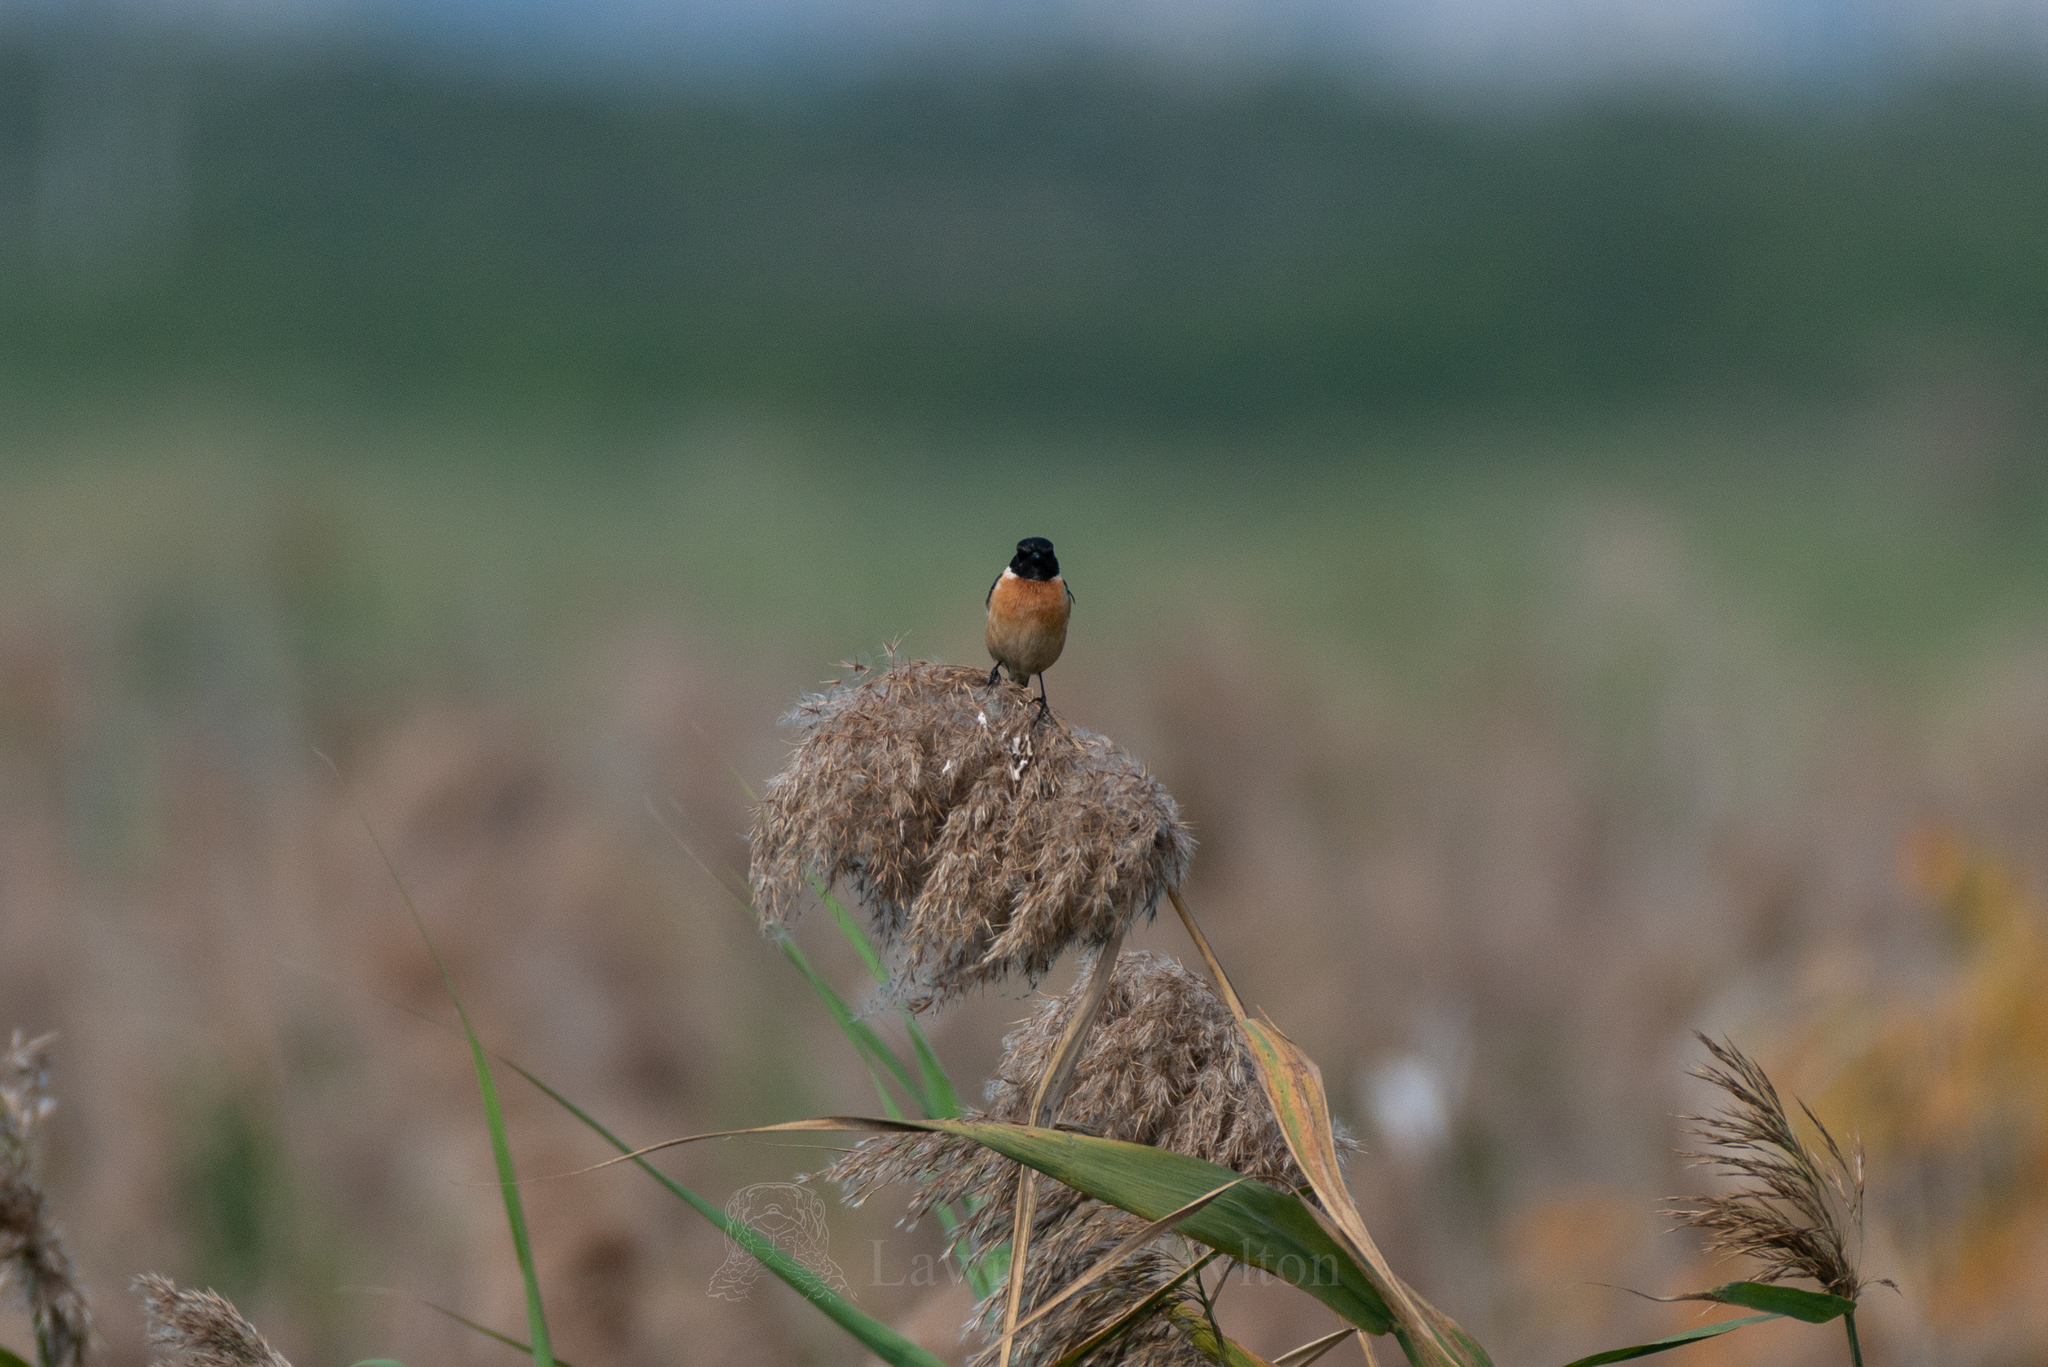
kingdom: Animalia
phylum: Chordata
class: Aves
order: Passeriformes
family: Muscicapidae
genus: Saxicola
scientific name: Saxicola stejnegeri
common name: Stejneger's stonechat
